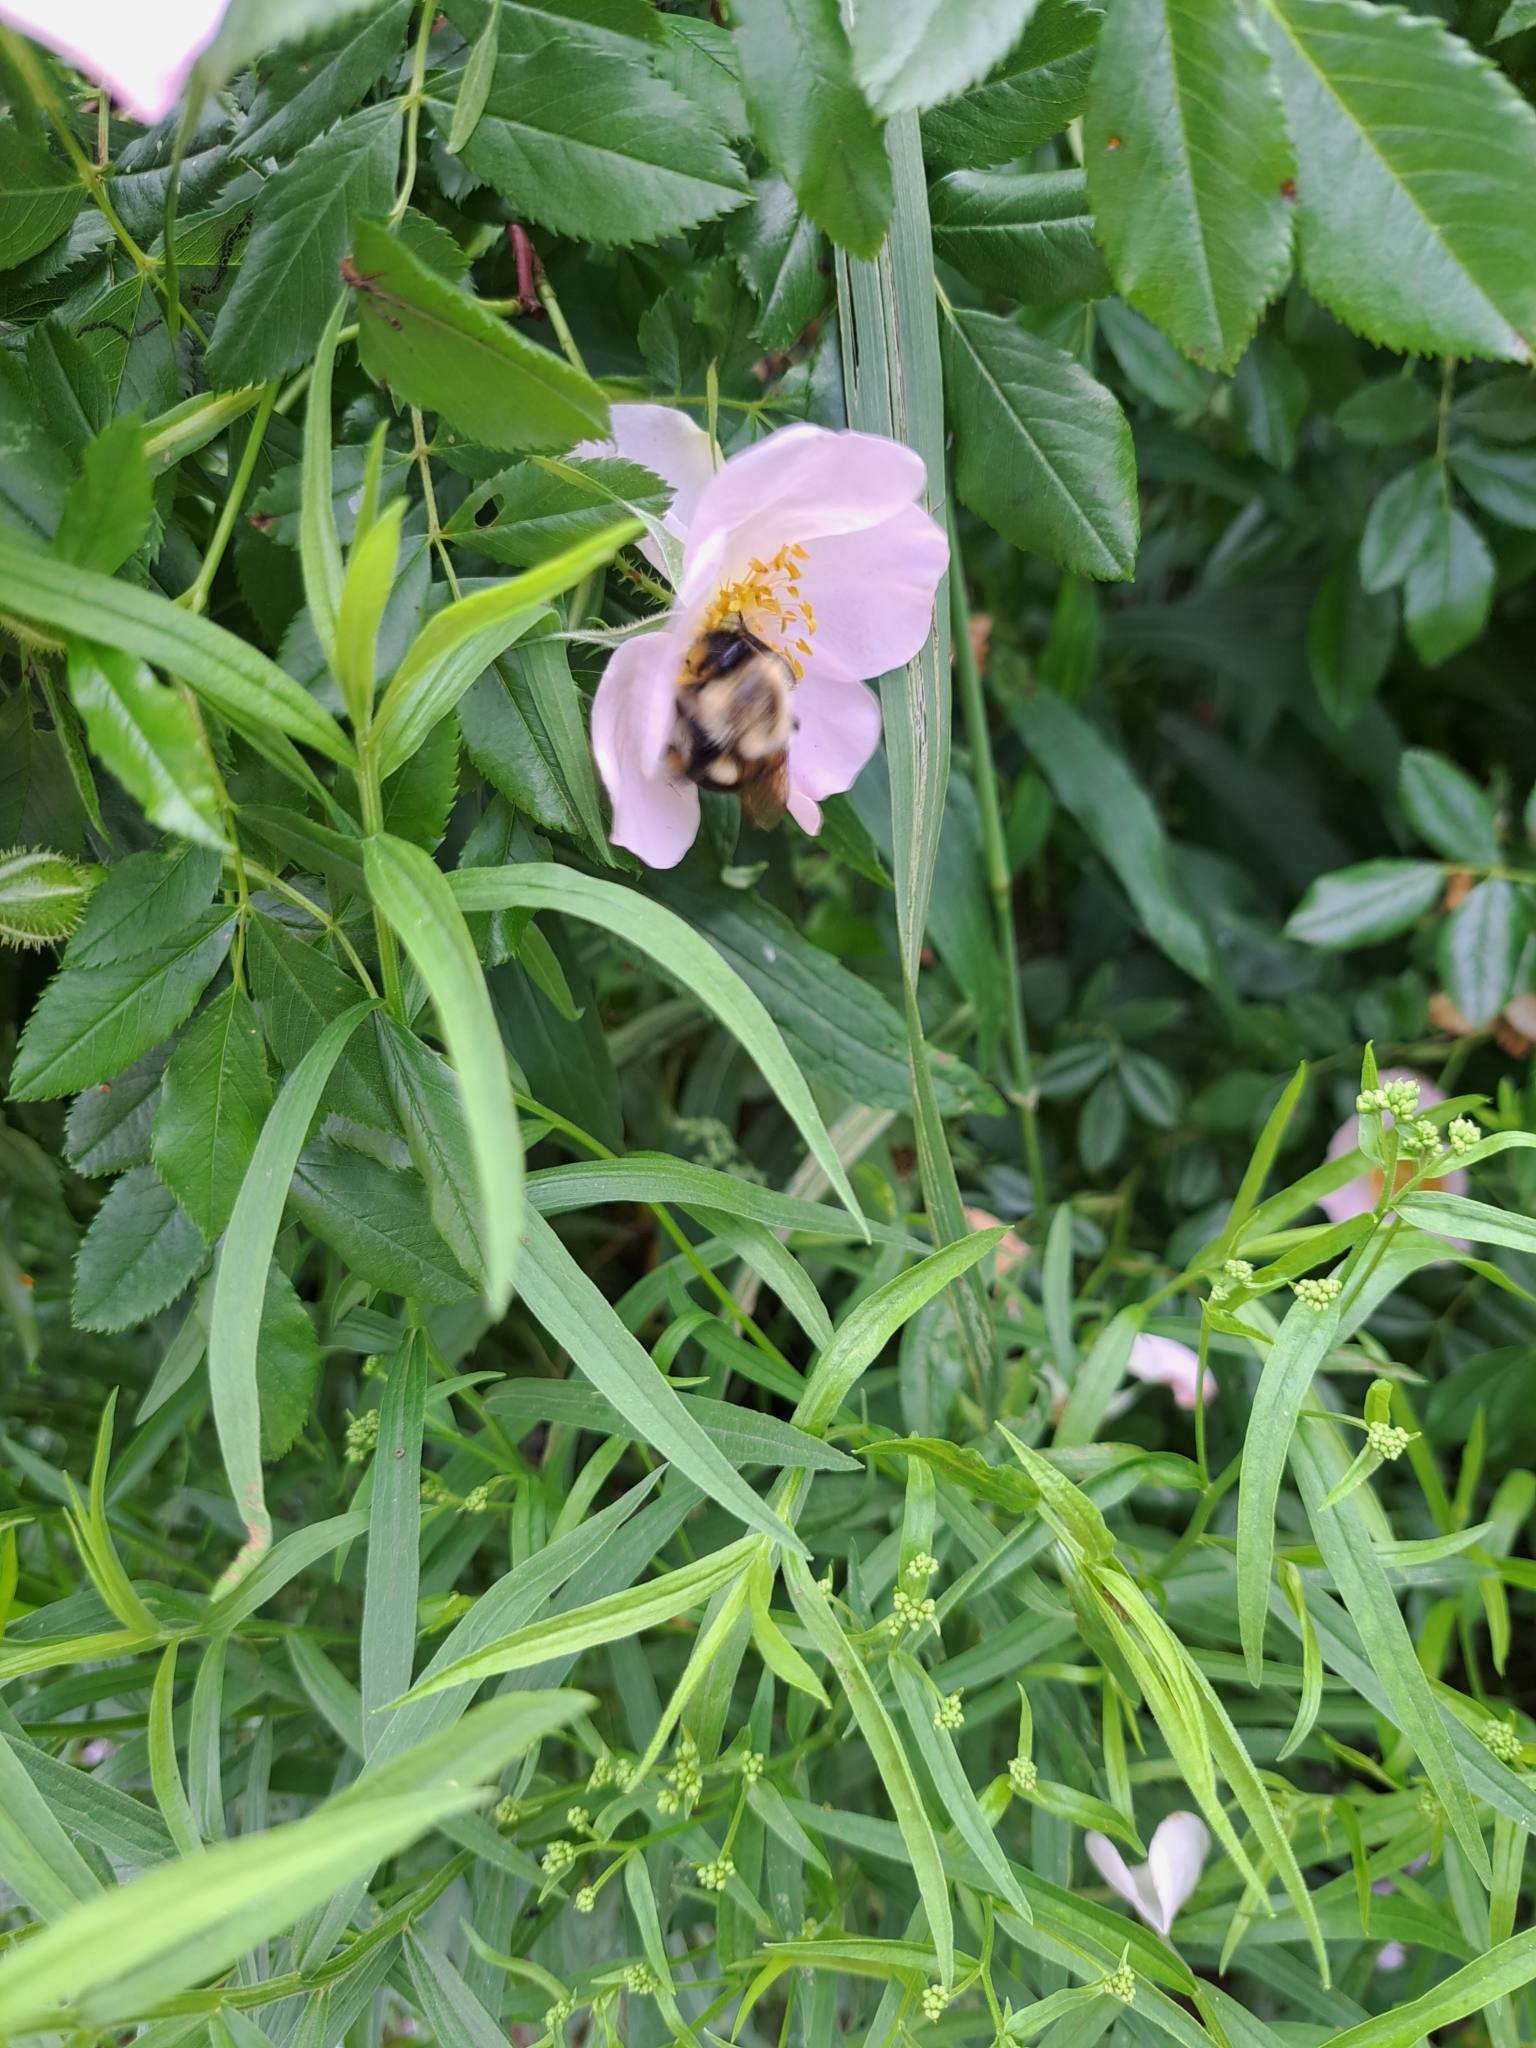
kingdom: Animalia
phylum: Arthropoda
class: Insecta
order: Hymenoptera
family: Apidae
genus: Bombus
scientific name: Bombus impatiens
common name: Common eastern bumble bee
